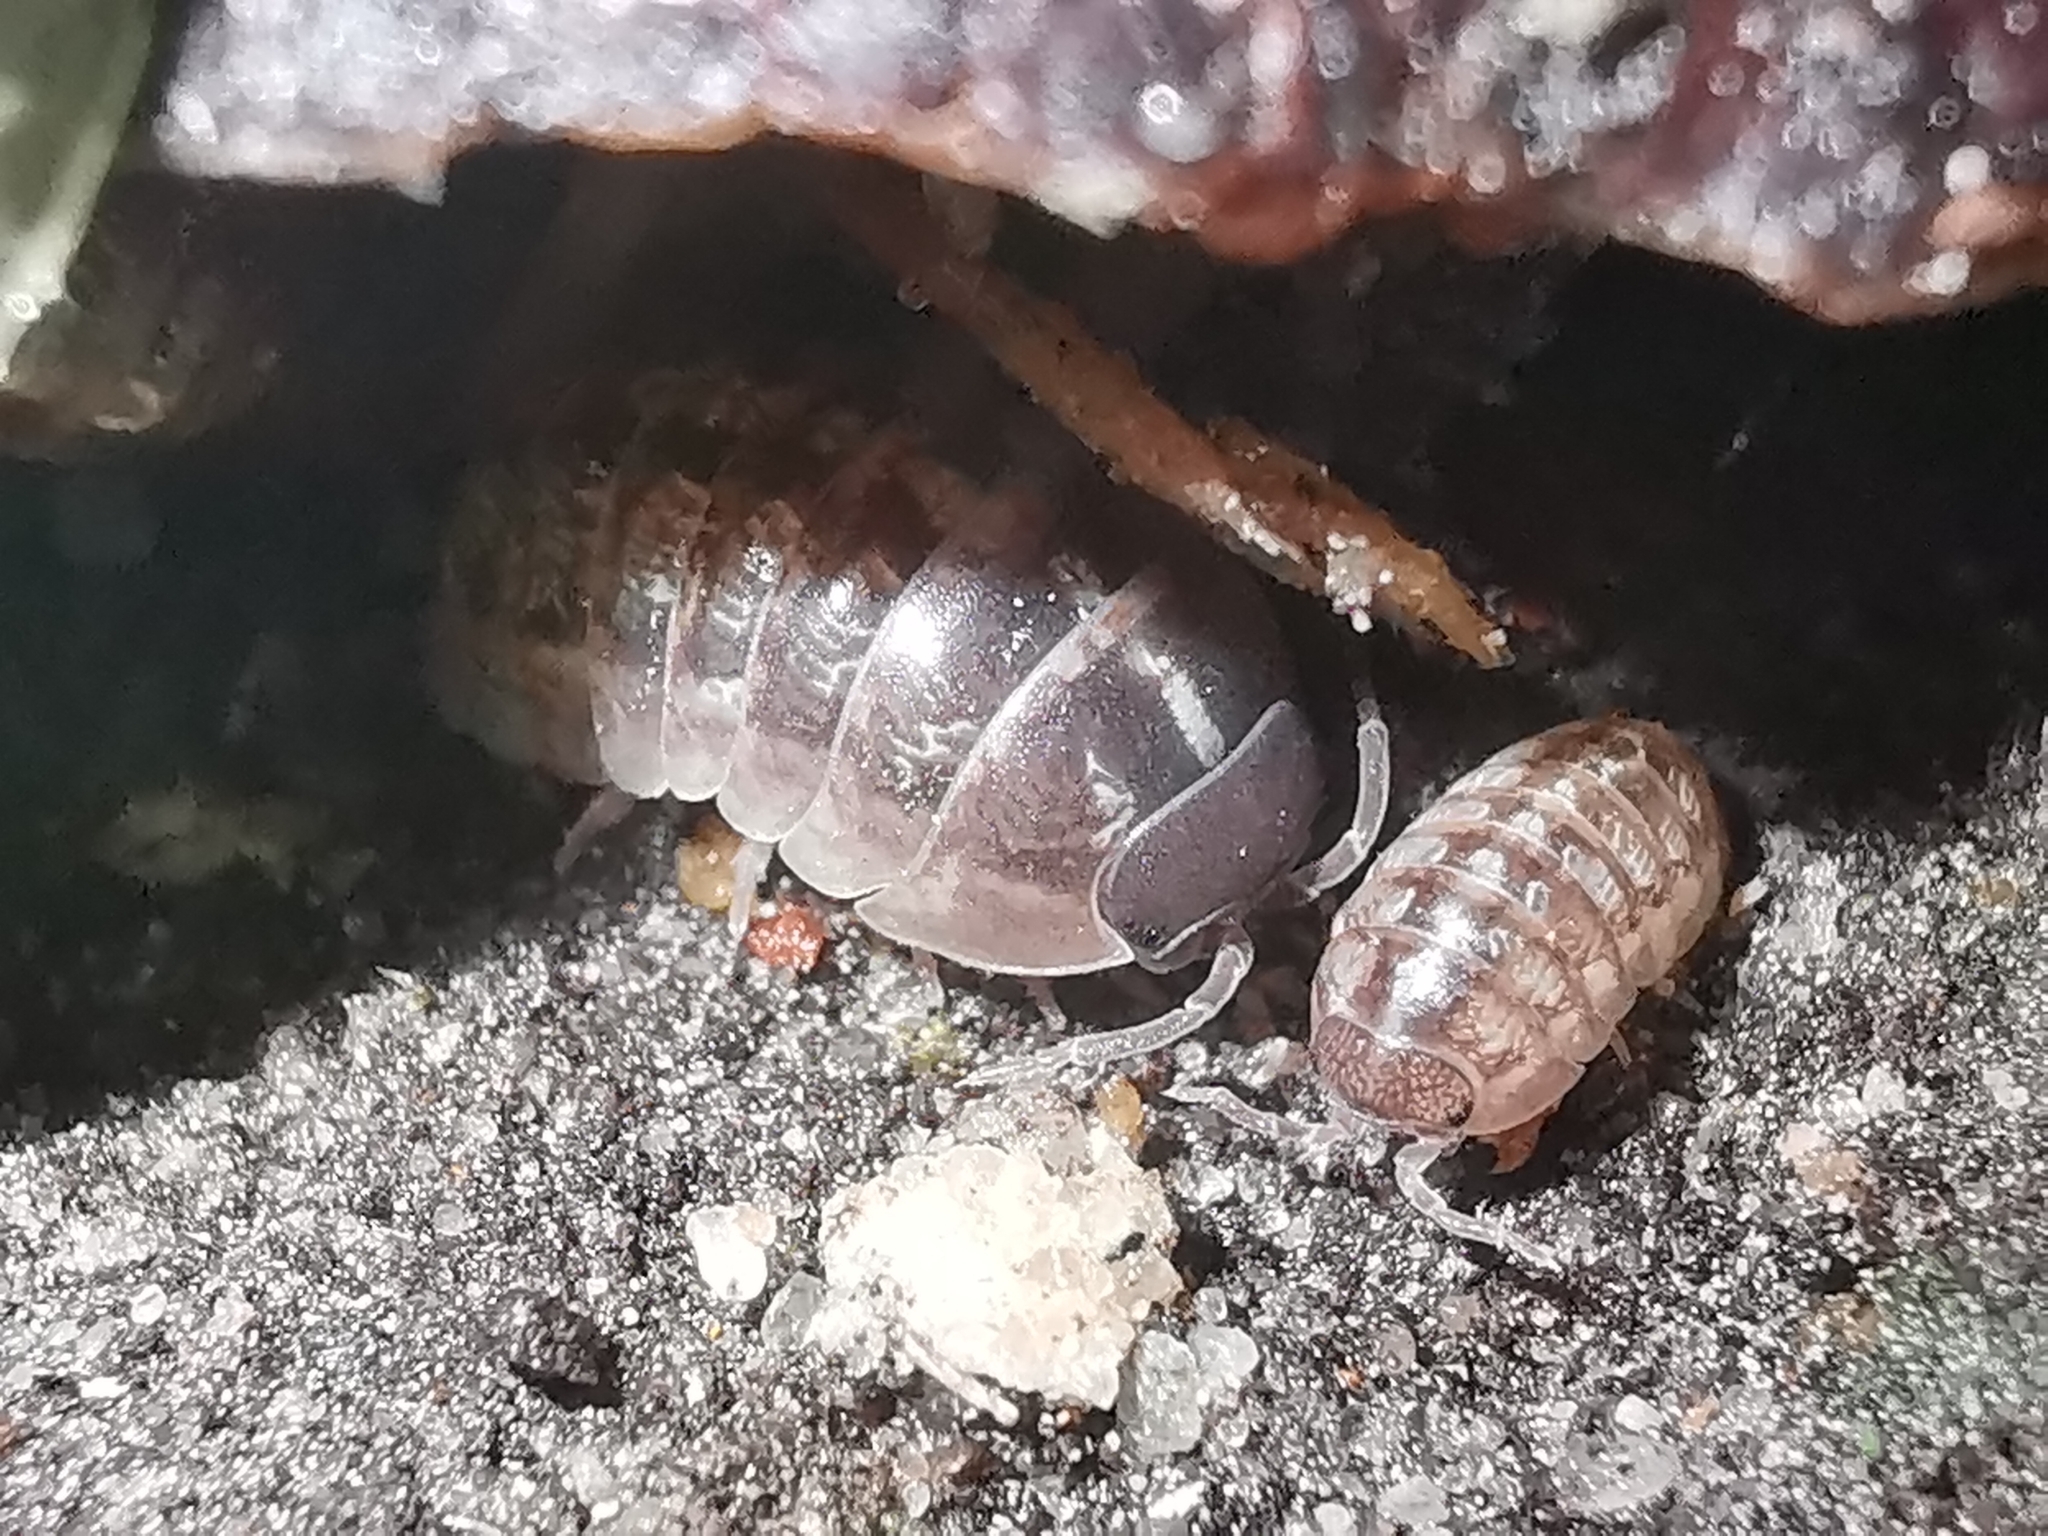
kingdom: Animalia
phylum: Arthropoda
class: Malacostraca
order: Isopoda
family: Armadillidiidae
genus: Armadillidium
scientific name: Armadillidium vulgare
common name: Common pill woodlouse
